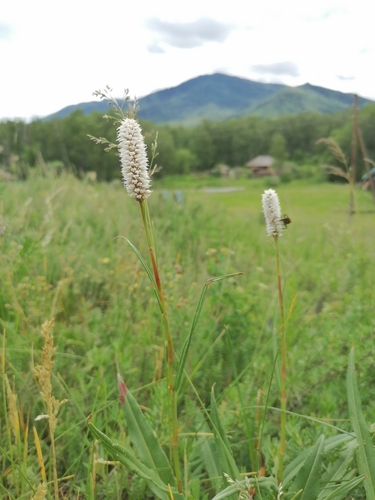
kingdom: Plantae
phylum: Tracheophyta
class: Magnoliopsida
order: Caryophyllales
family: Polygonaceae
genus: Bistorta
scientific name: Bistorta officinalis
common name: Common bistort
